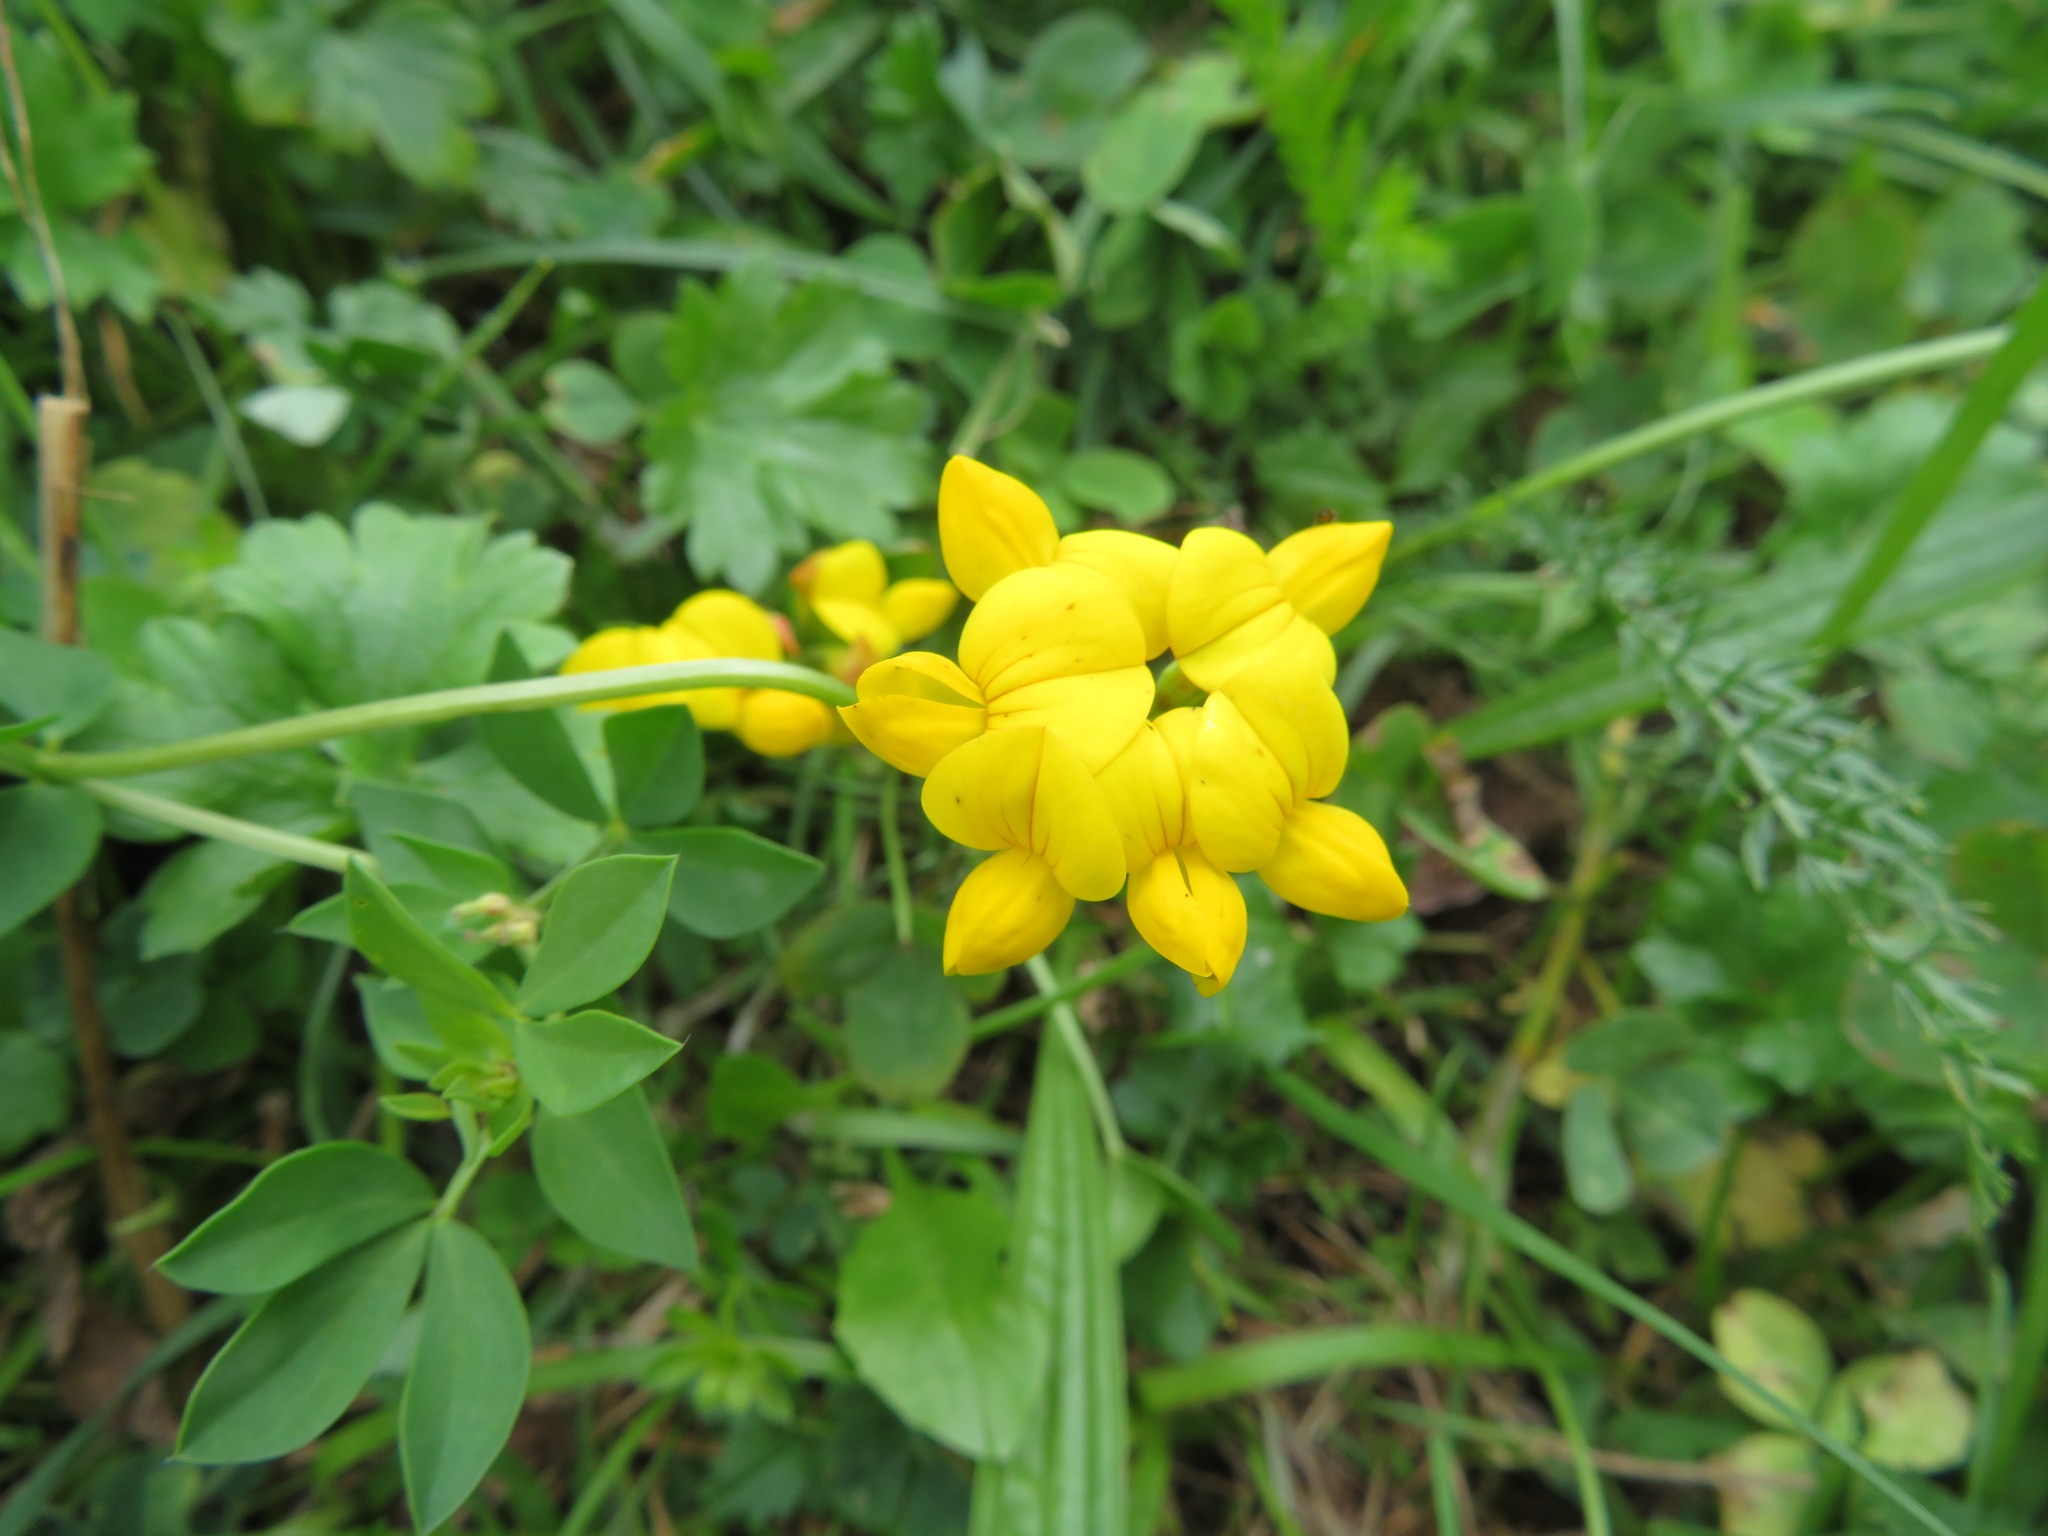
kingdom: Plantae
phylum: Tracheophyta
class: Magnoliopsida
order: Fabales
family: Fabaceae
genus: Lotus
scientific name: Lotus corniculatus
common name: Common bird's-foot-trefoil
